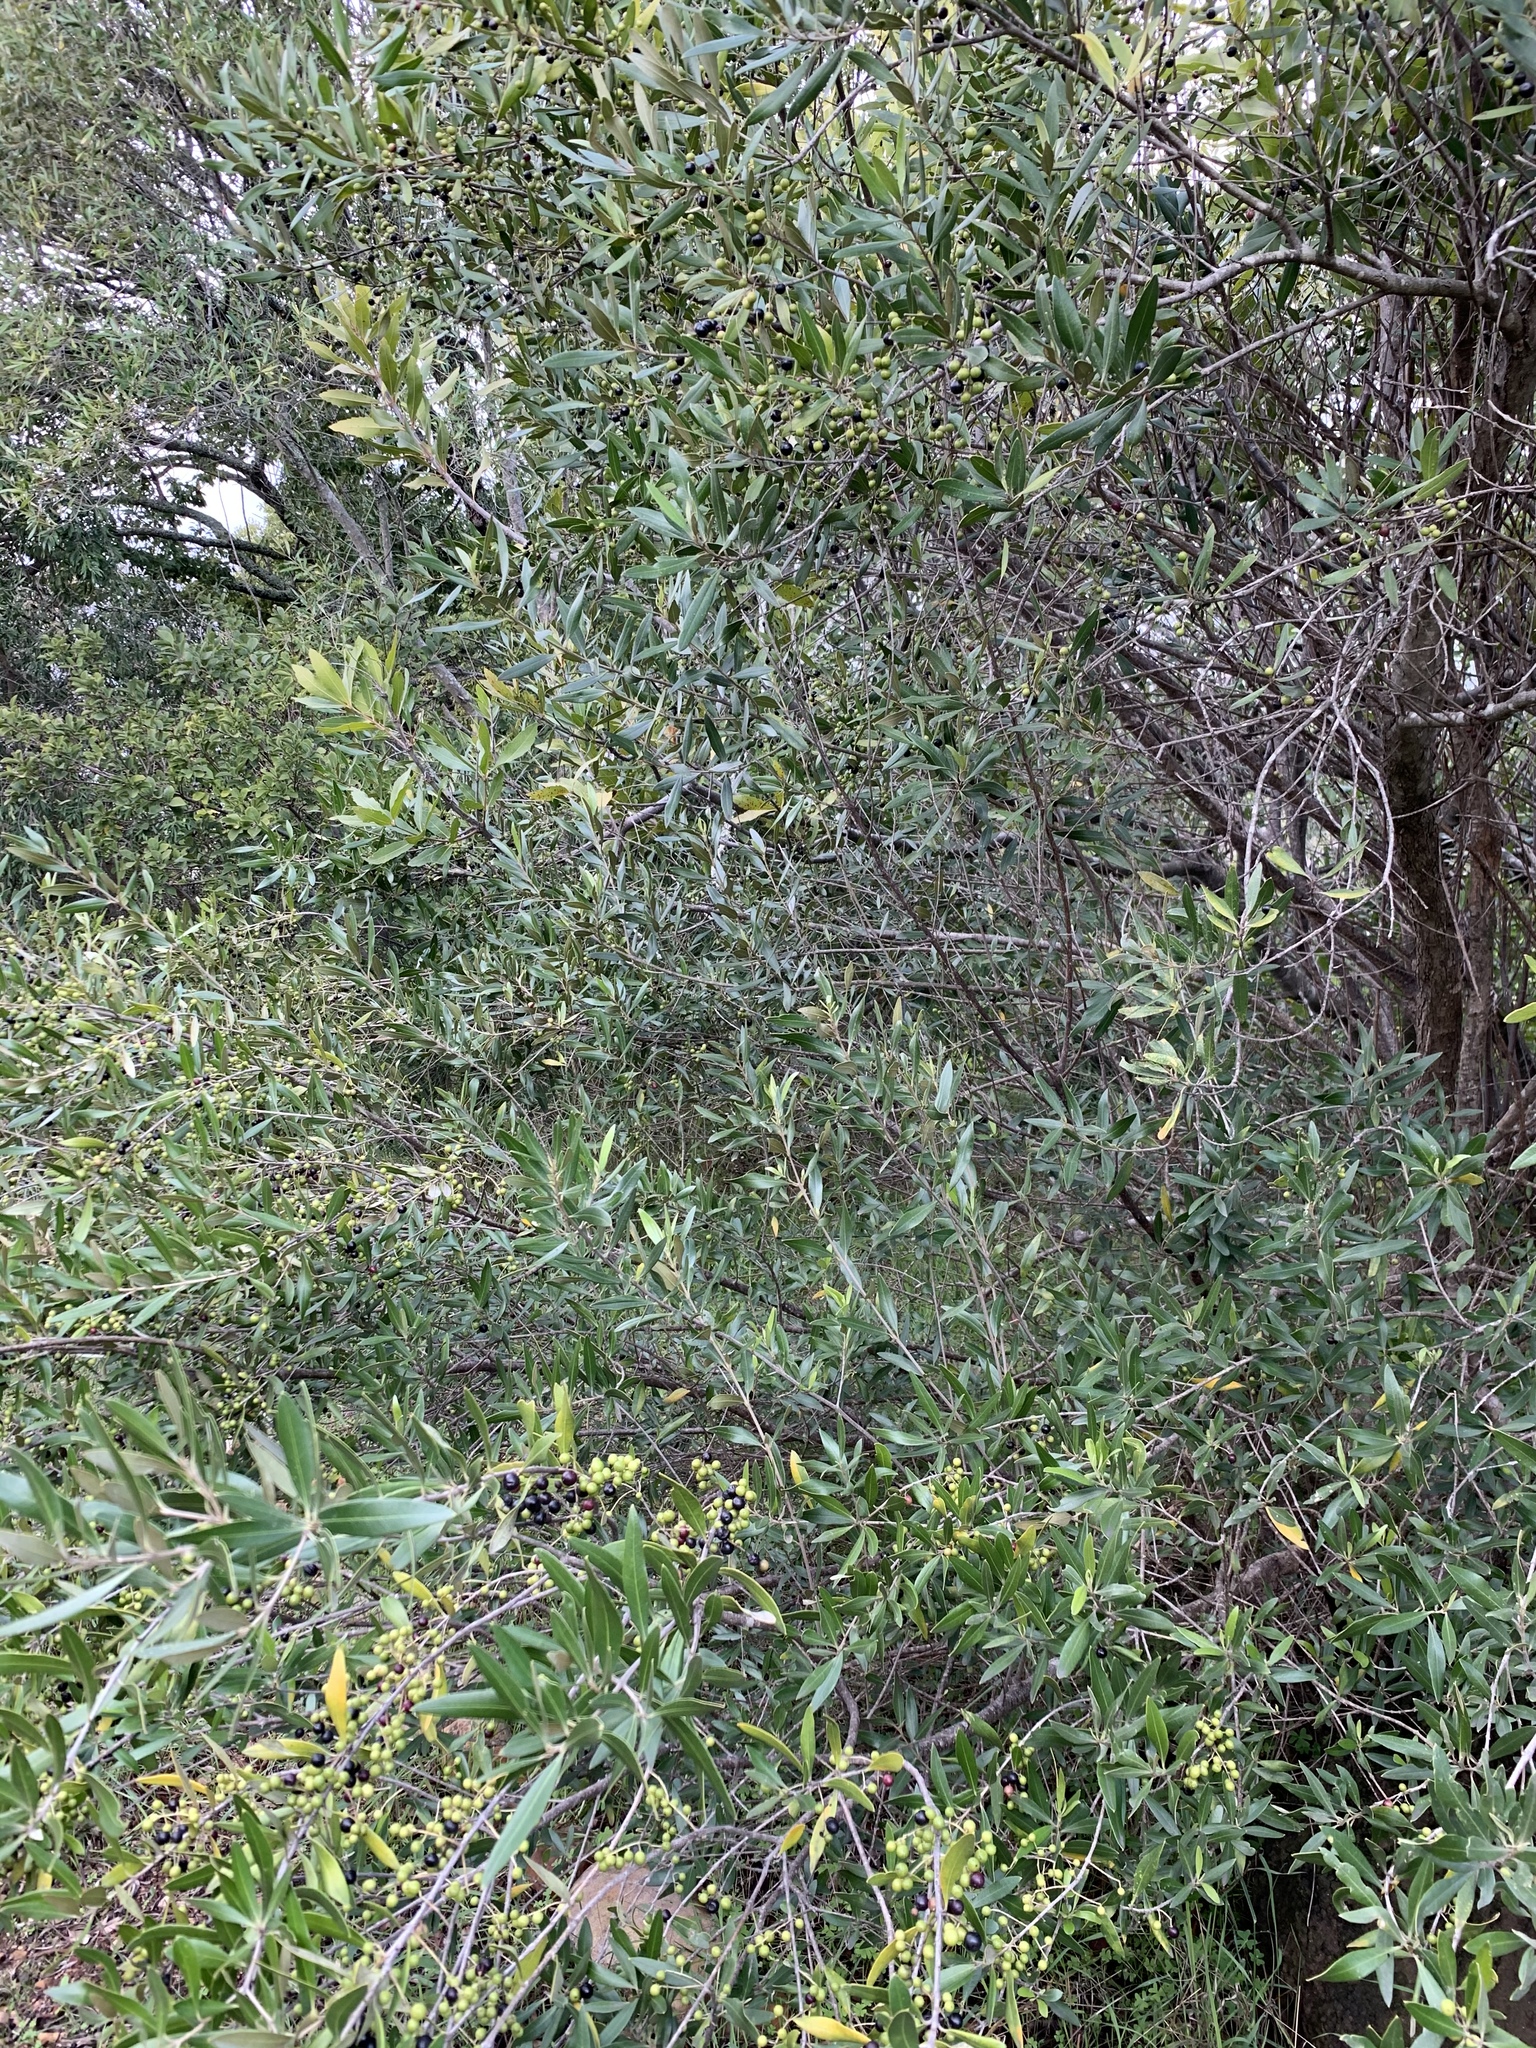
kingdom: Plantae
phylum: Tracheophyta
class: Magnoliopsida
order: Lamiales
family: Oleaceae
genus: Olea
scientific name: Olea europaea
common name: Olive
